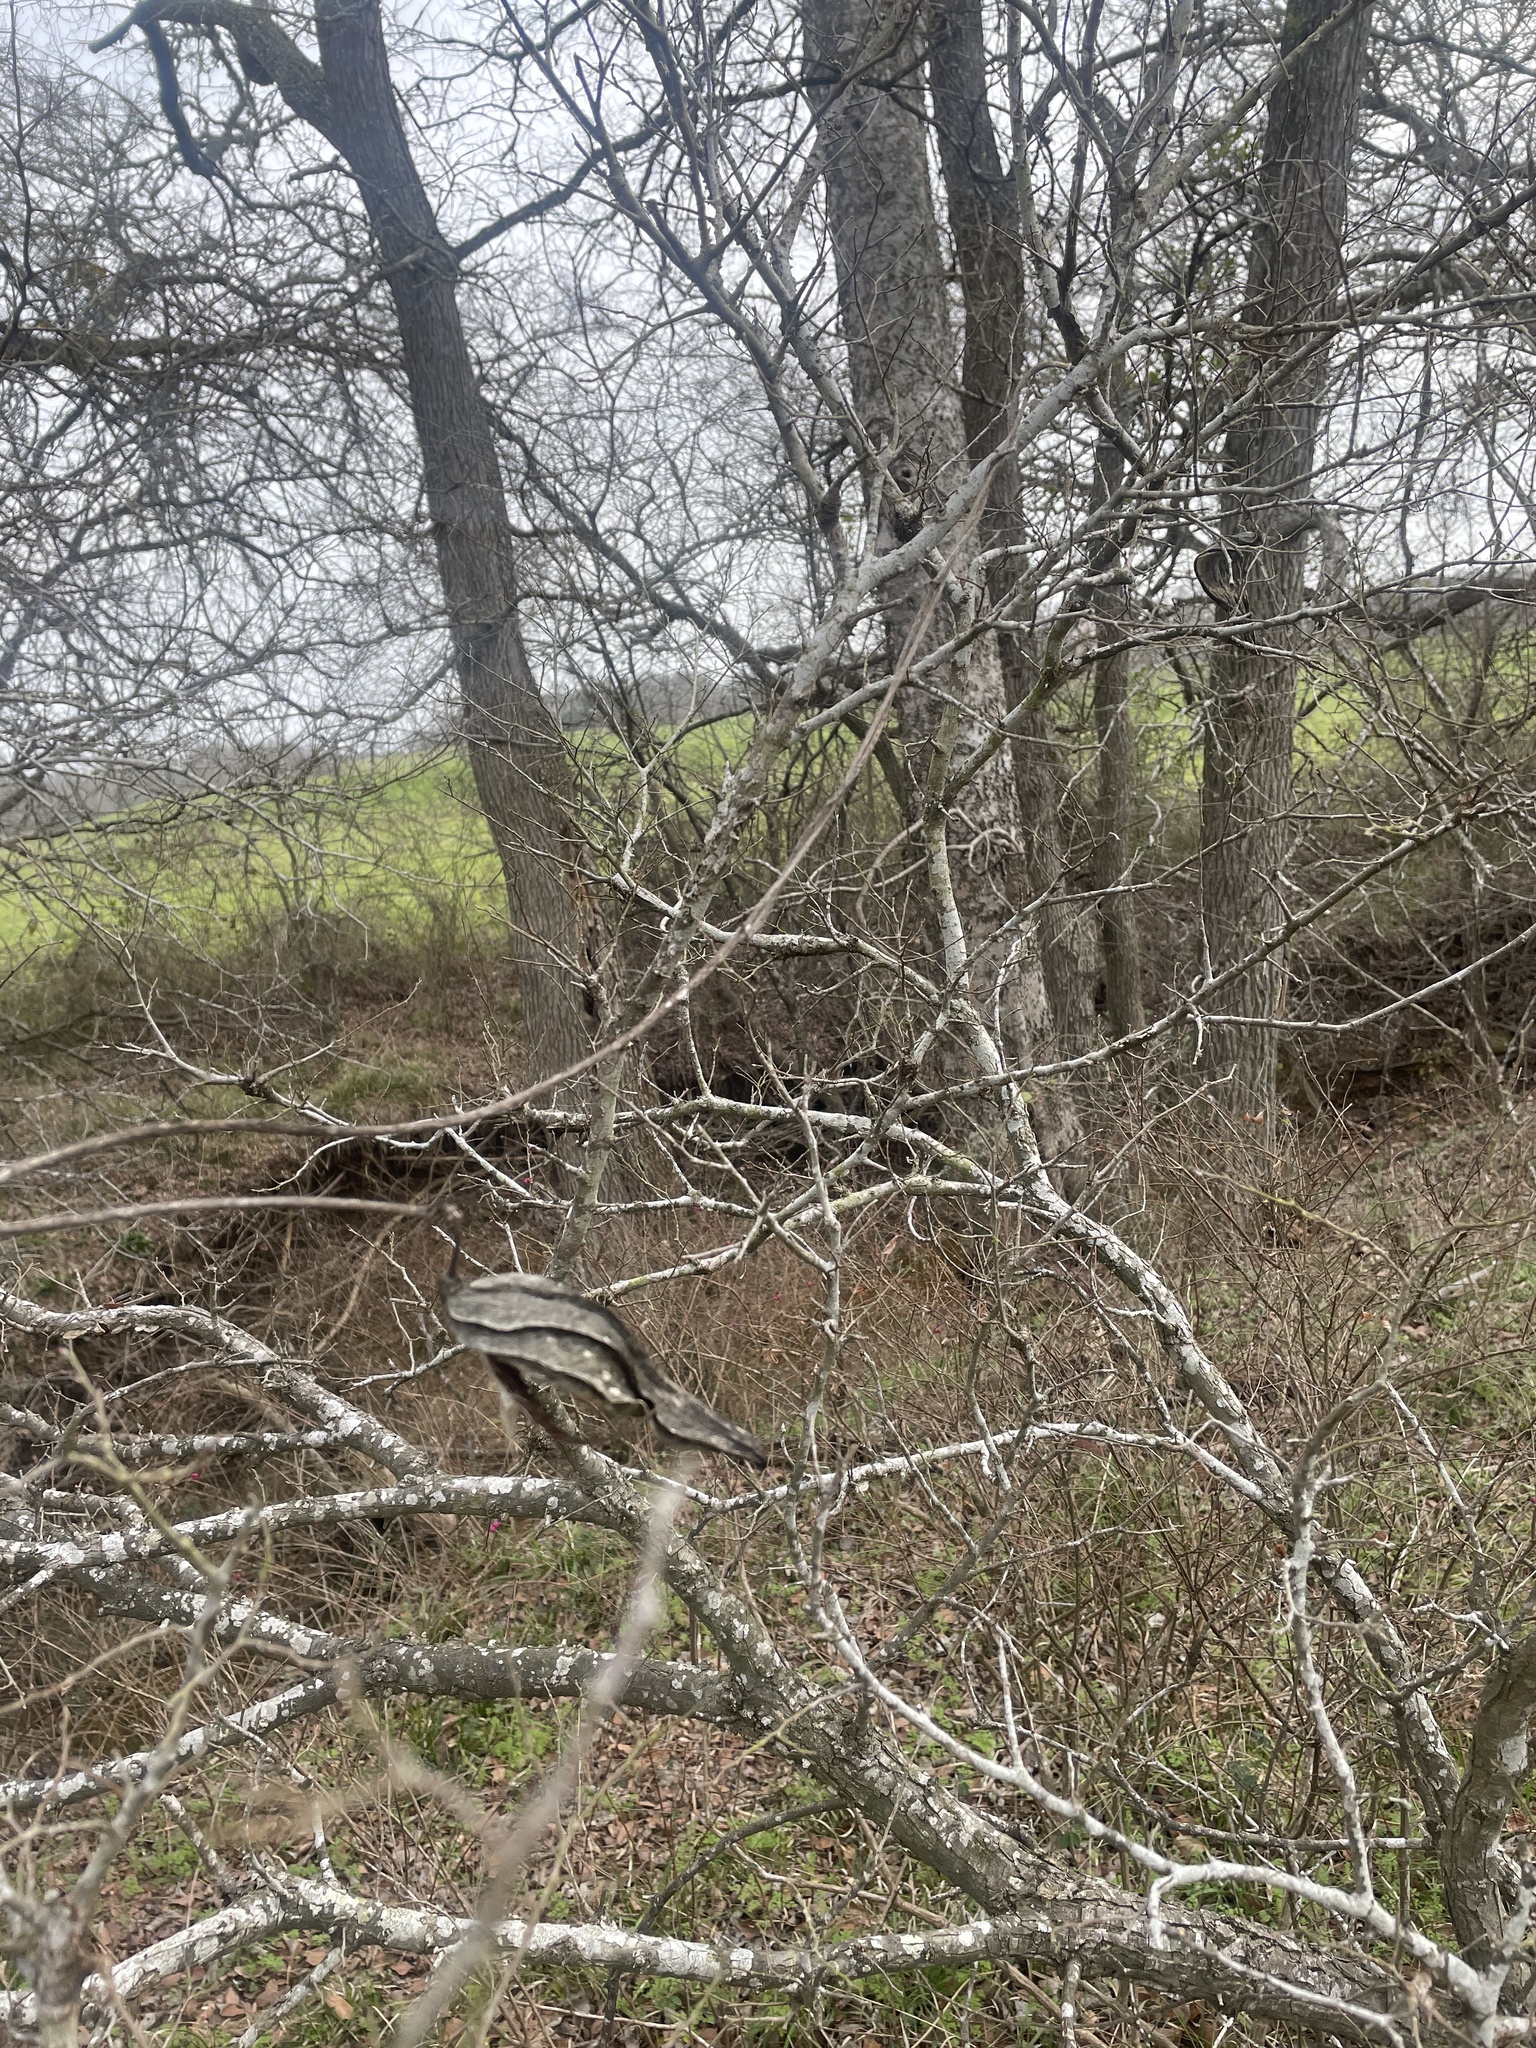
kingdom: Plantae
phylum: Tracheophyta
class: Magnoliopsida
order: Gentianales
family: Apocynaceae
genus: Gonolobus
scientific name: Gonolobus suberosus
